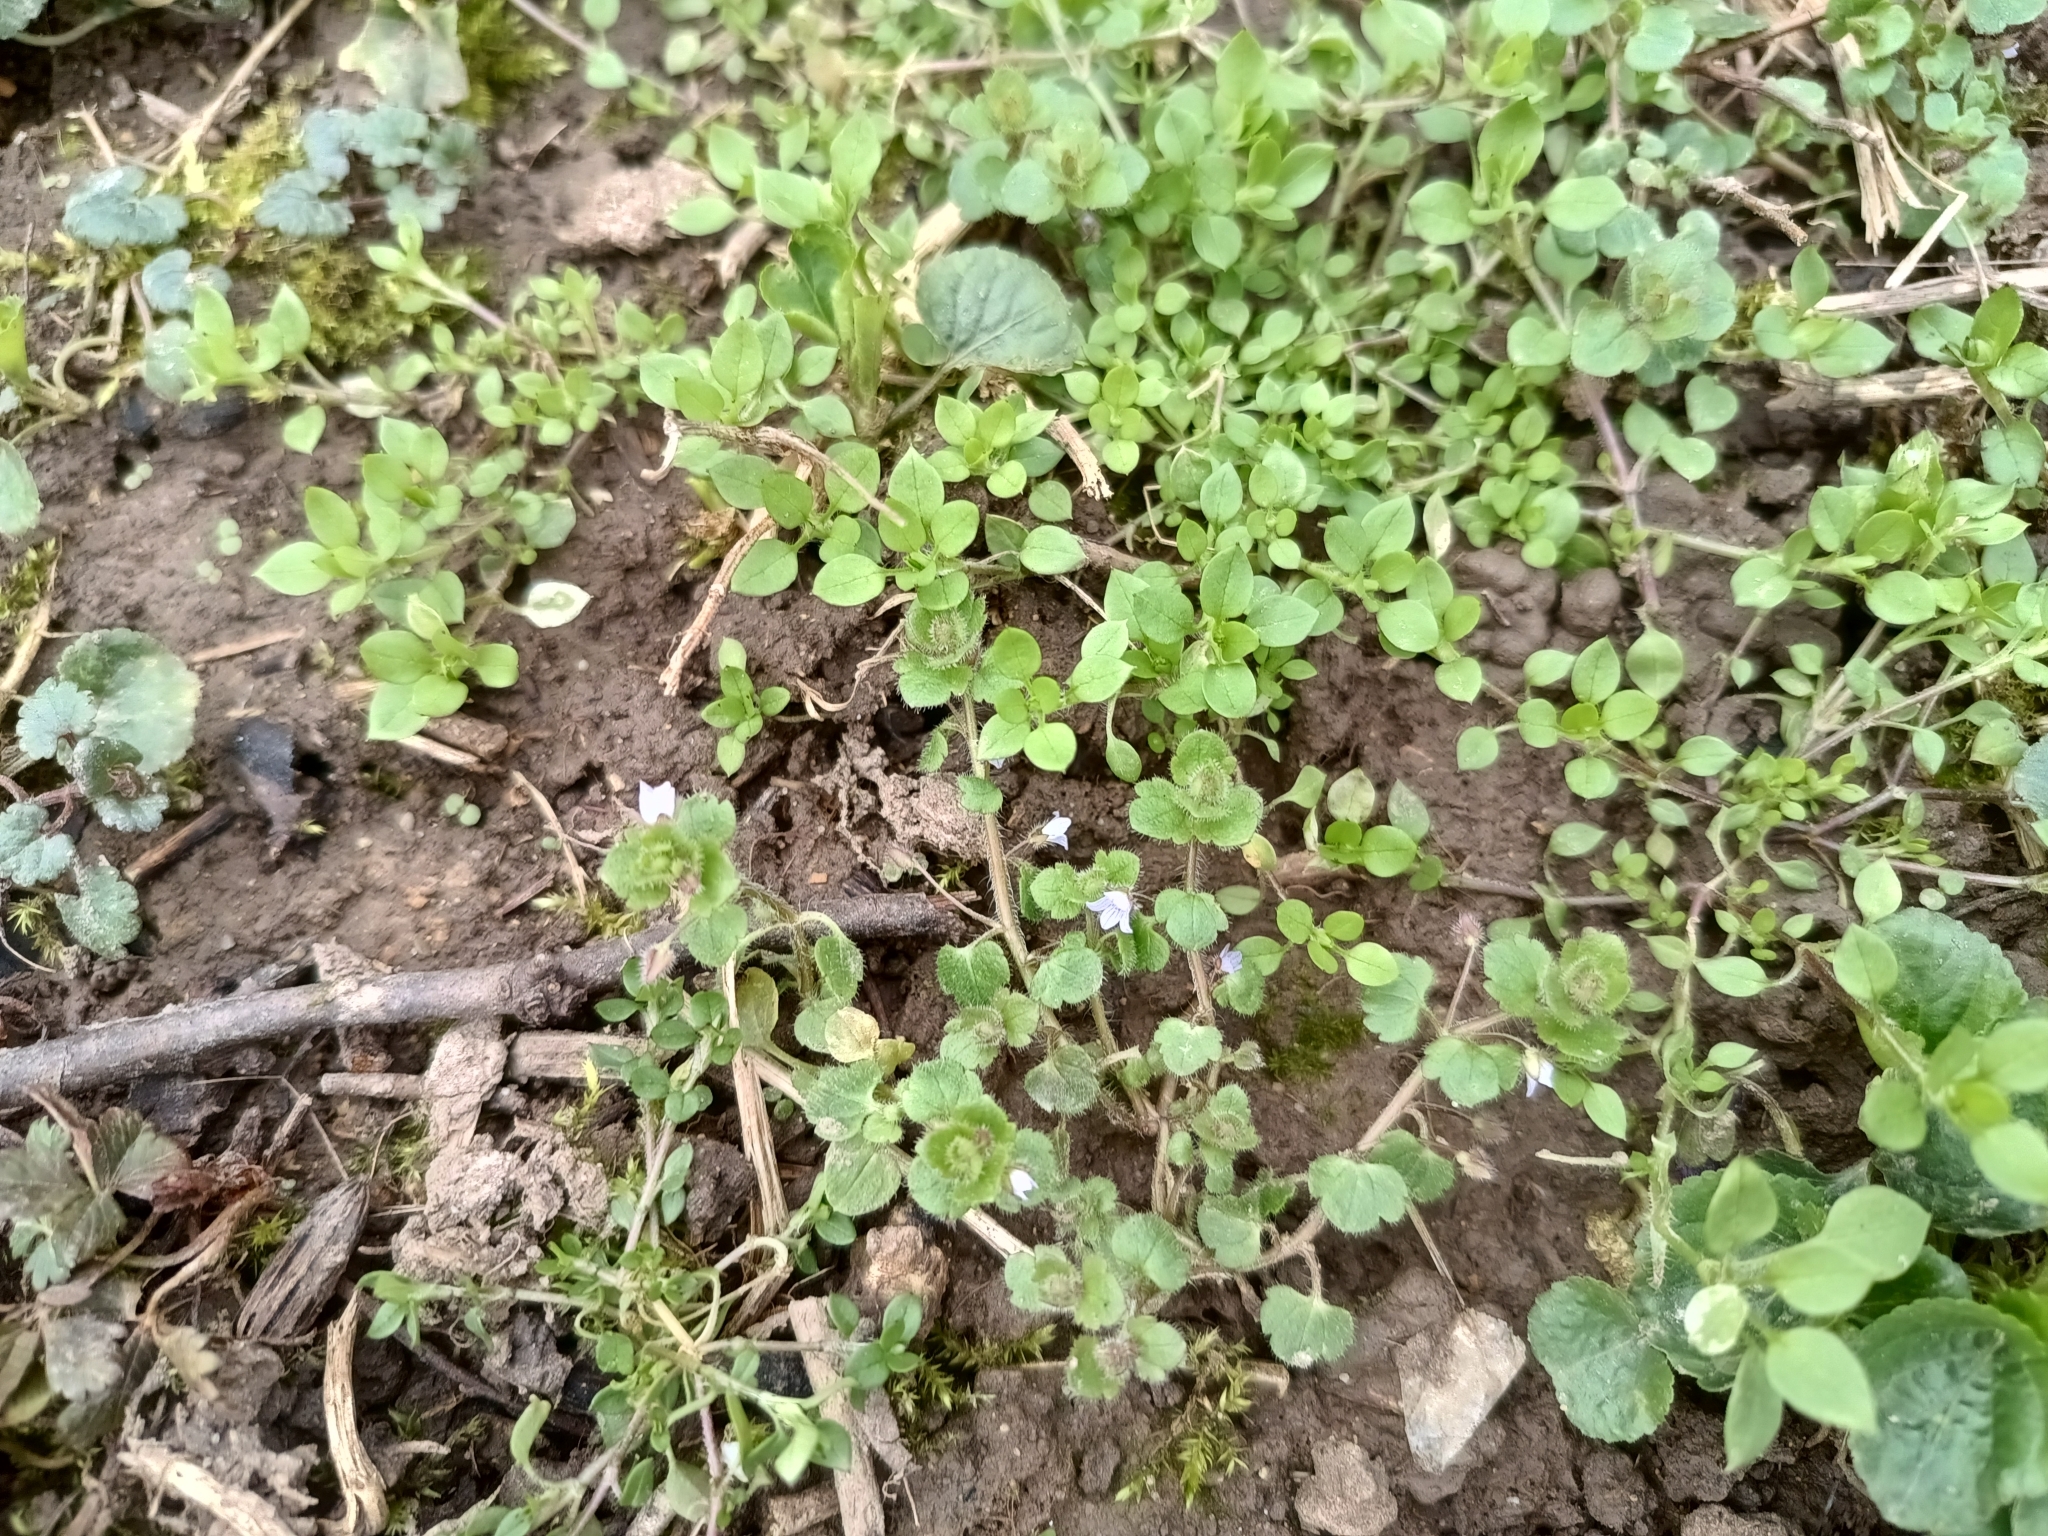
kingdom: Plantae
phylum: Tracheophyta
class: Magnoliopsida
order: Lamiales
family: Plantaginaceae
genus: Veronica
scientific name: Veronica sublobata
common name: False ivy-leaved speedwell
